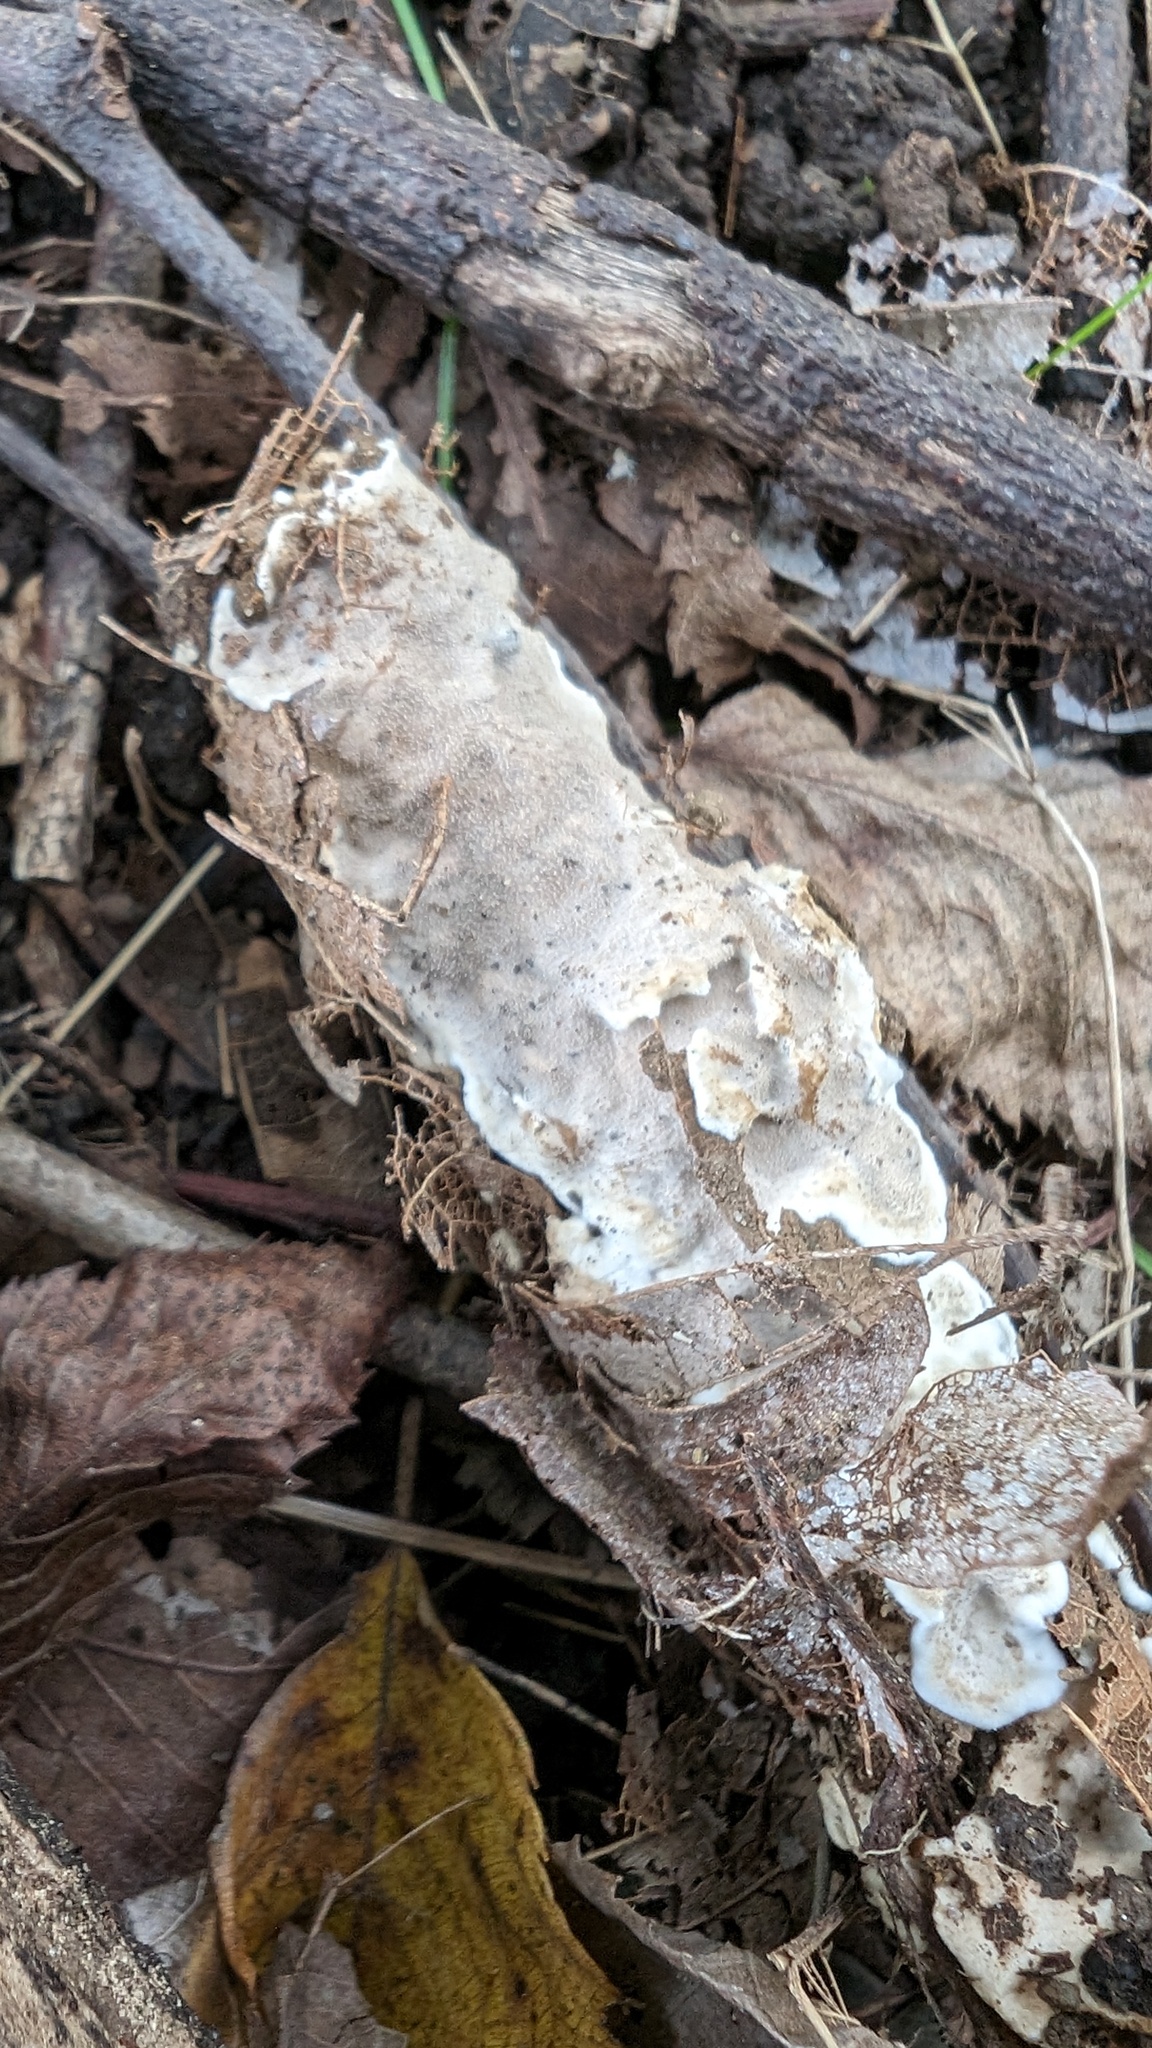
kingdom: Fungi
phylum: Basidiomycota
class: Agaricomycetes
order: Auriculariales
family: Auriculariaceae
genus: Heterochaete
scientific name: Heterochaete delicata
